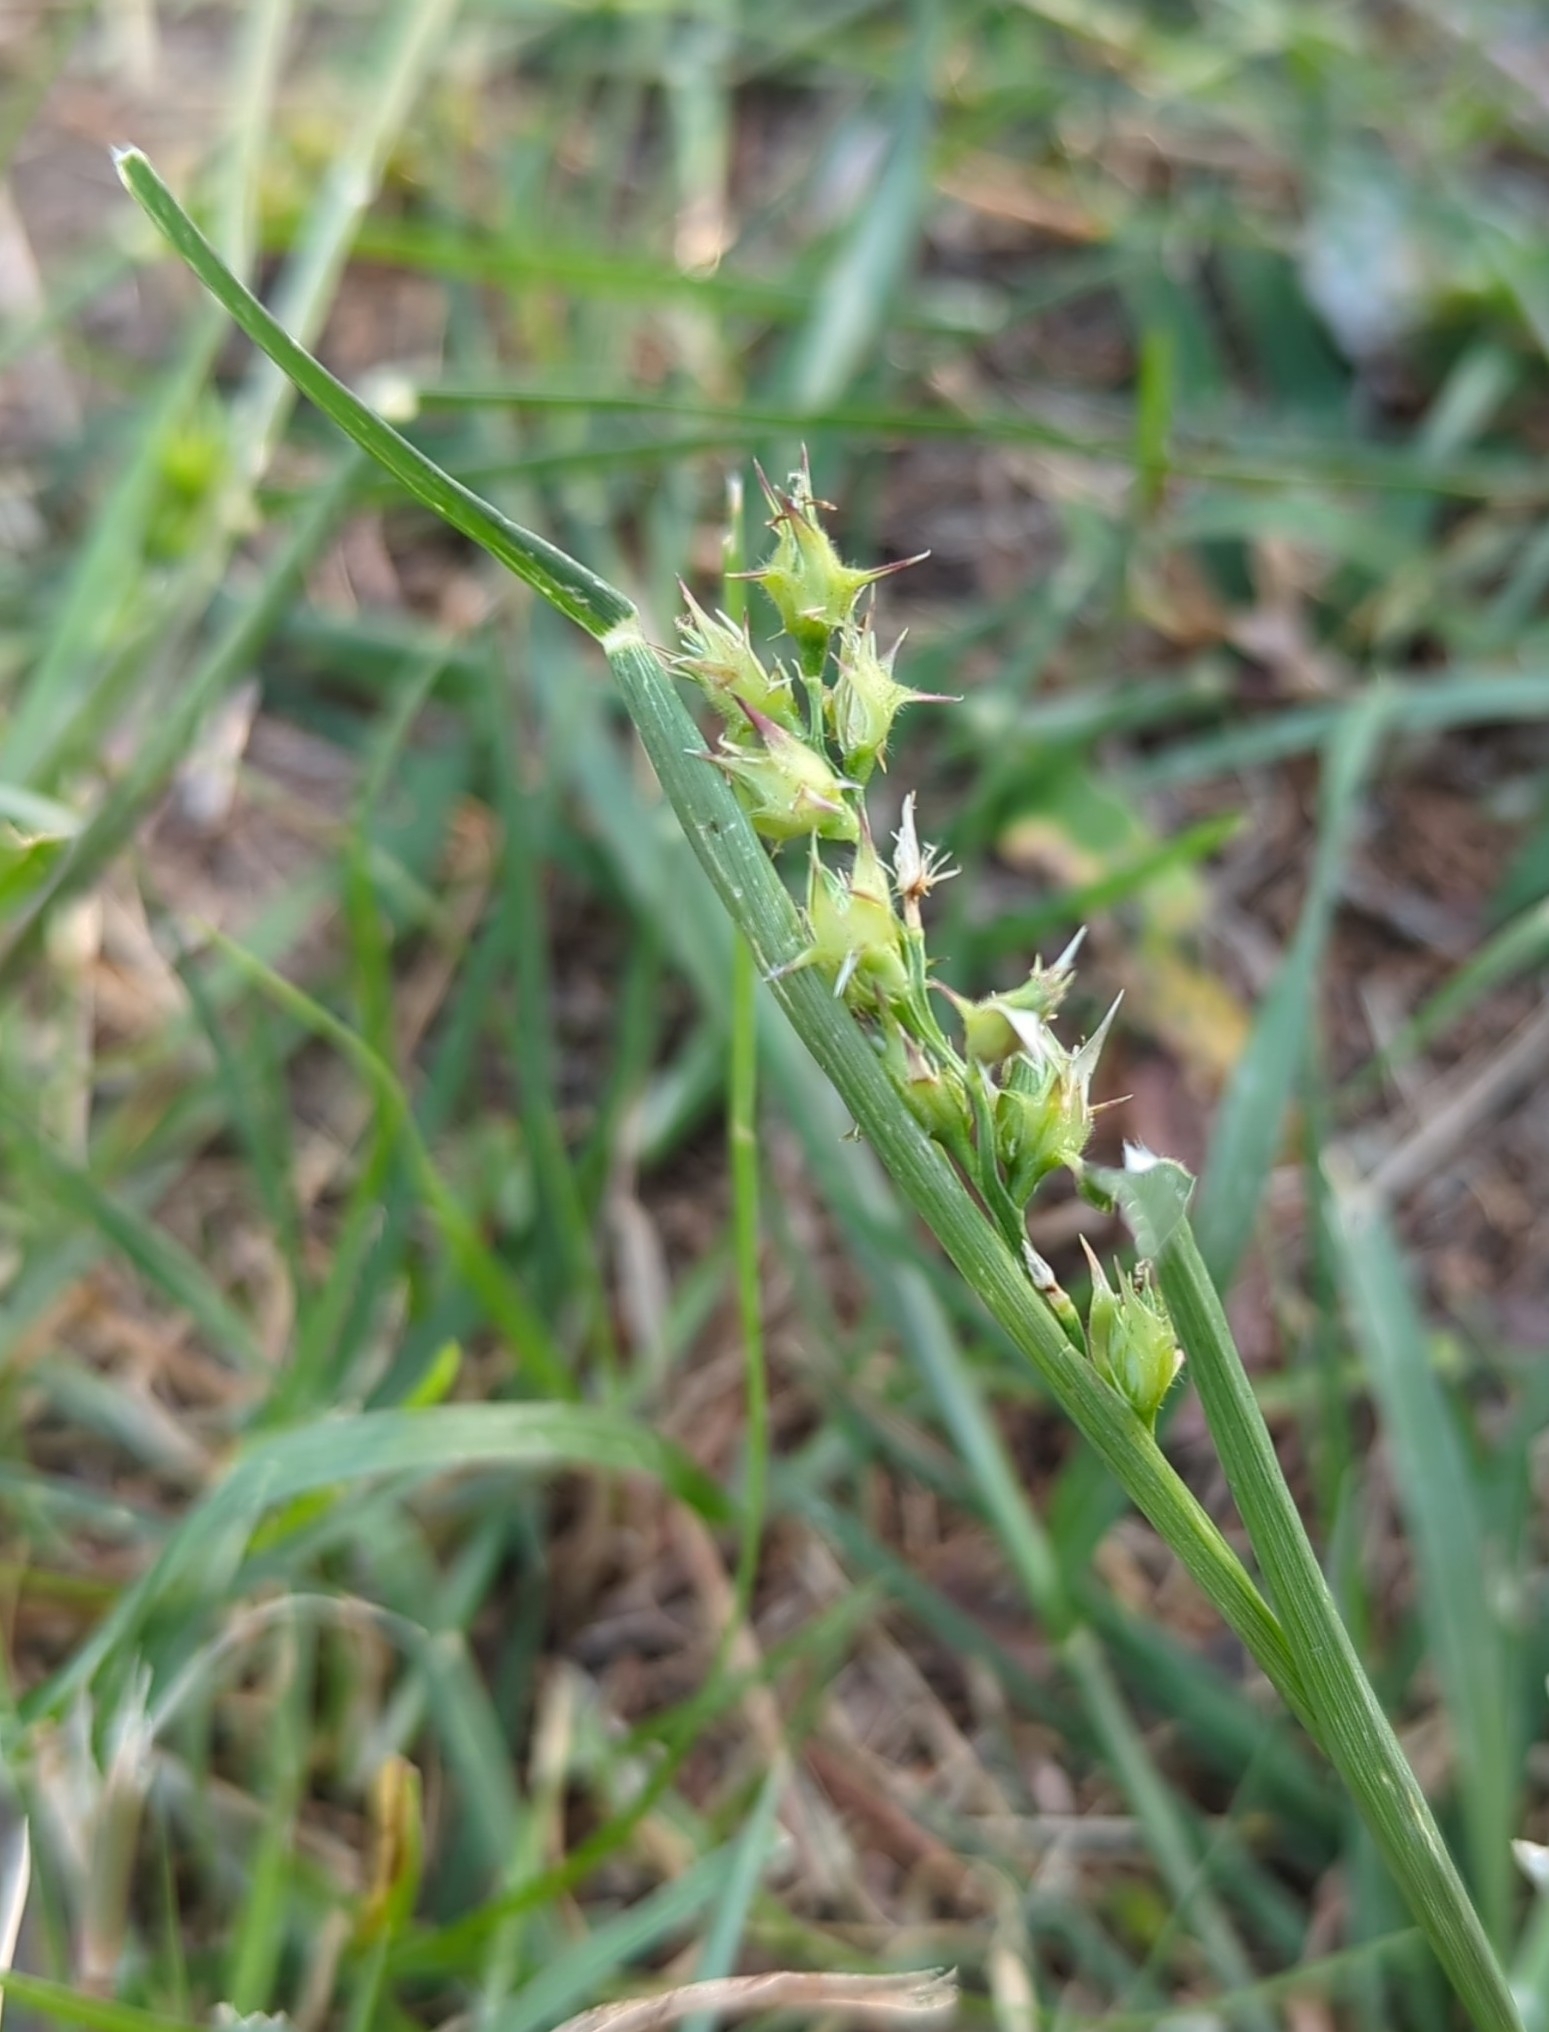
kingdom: Plantae
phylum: Tracheophyta
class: Liliopsida
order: Poales
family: Poaceae
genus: Cenchrus
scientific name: Cenchrus spinifex
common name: Coast sandbur
